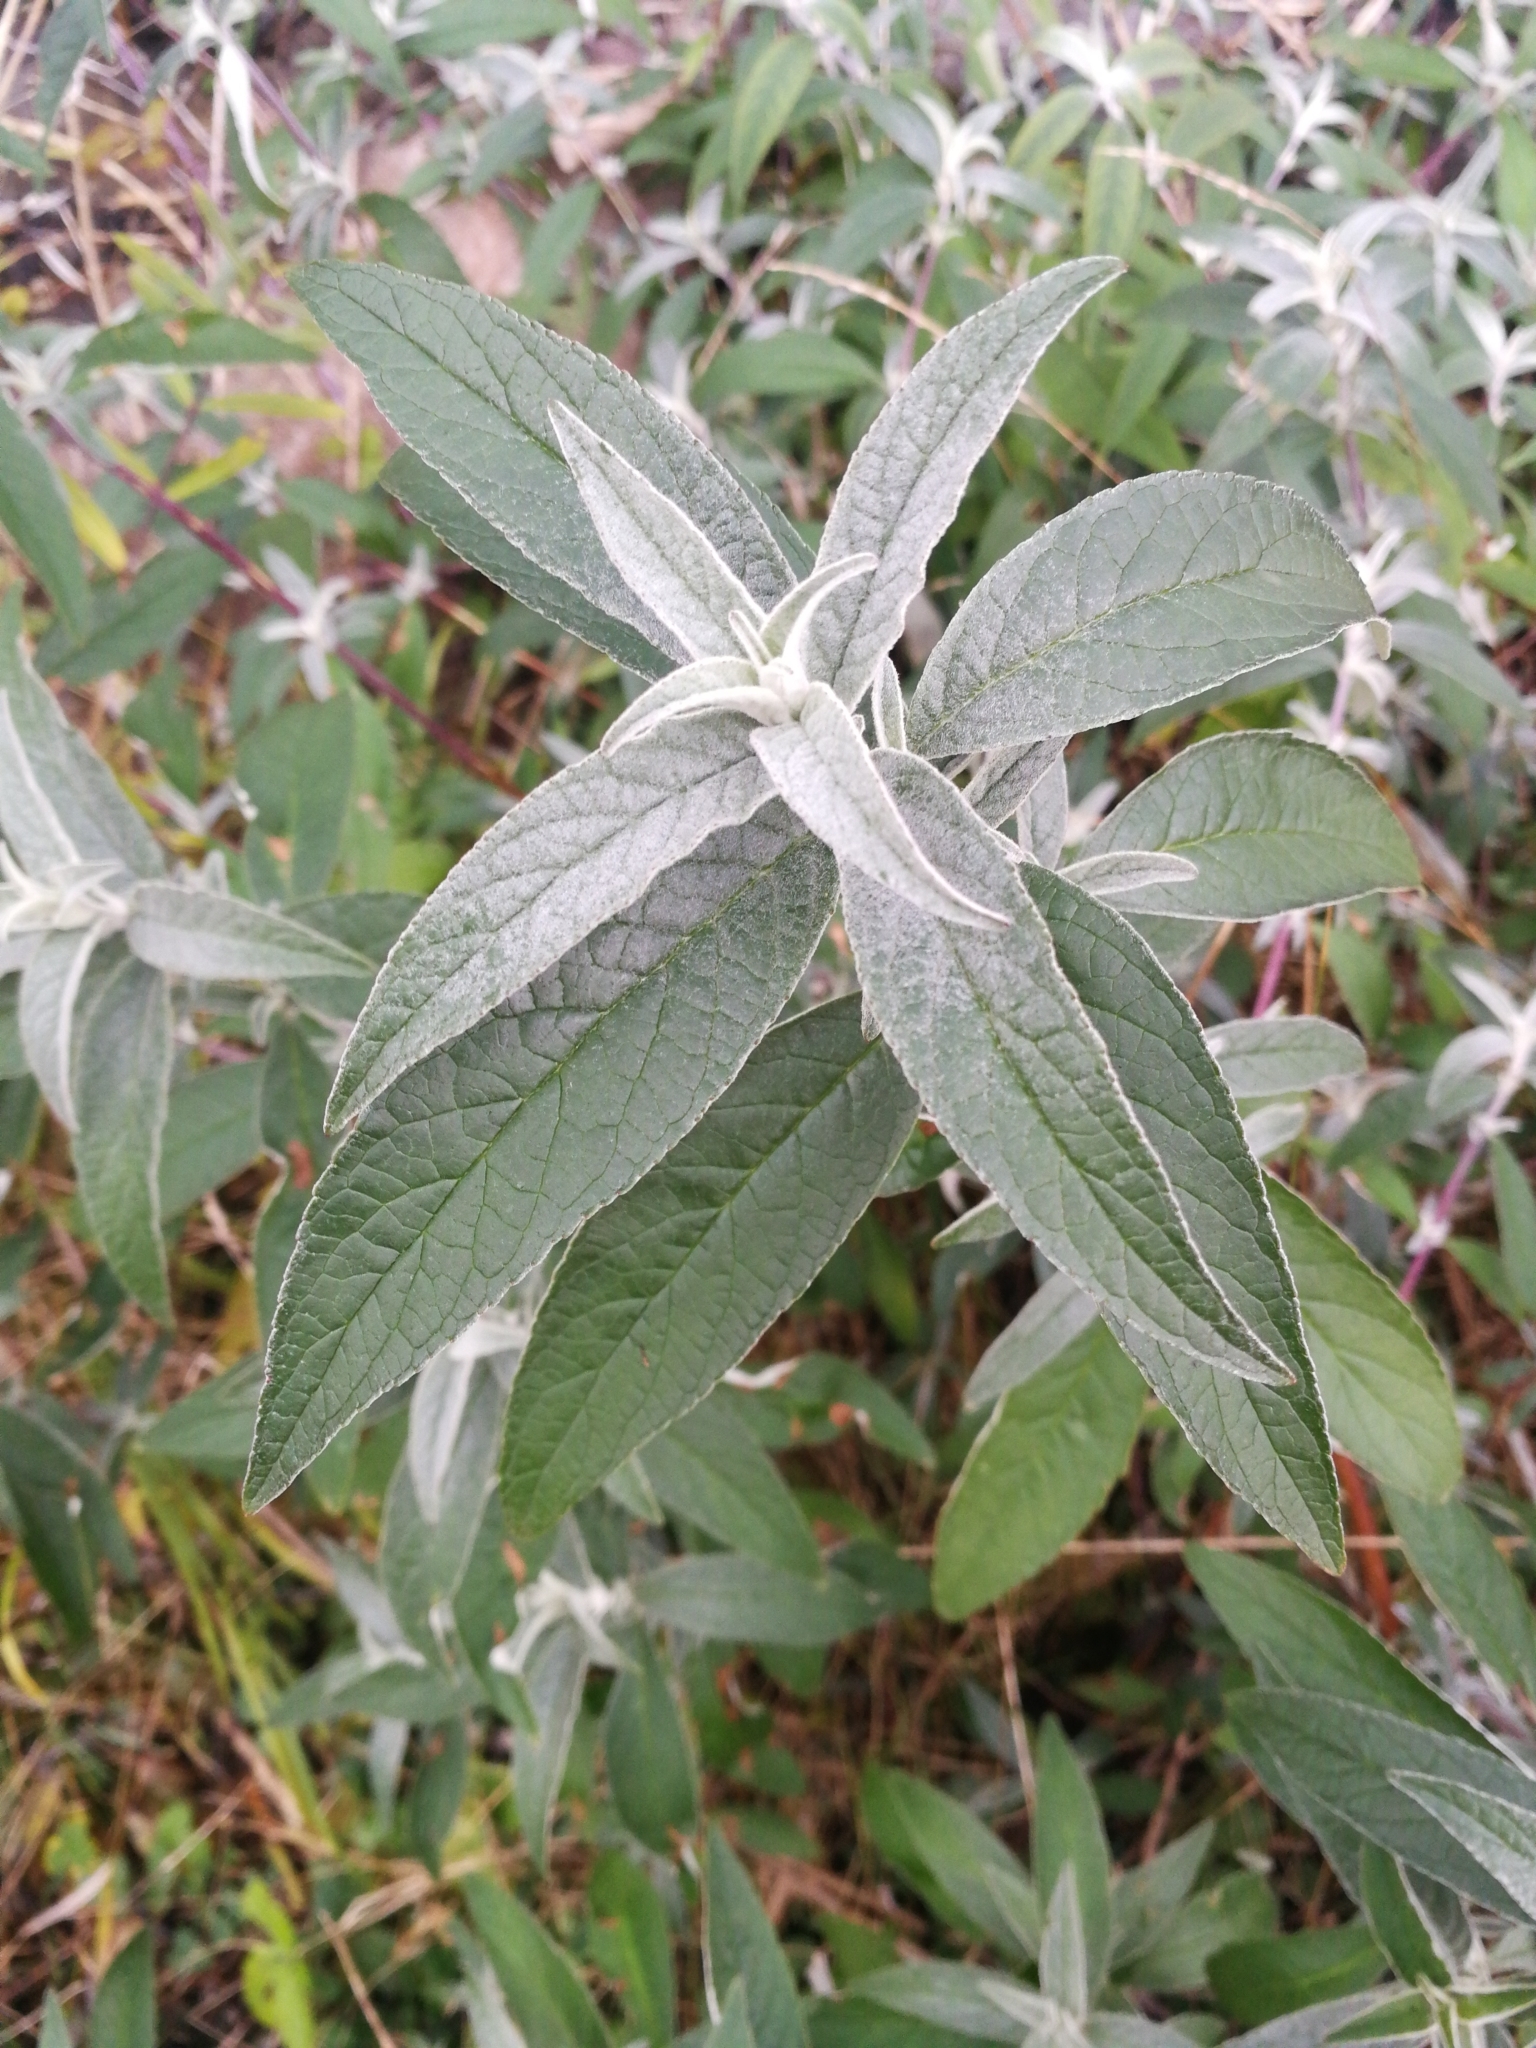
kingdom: Plantae
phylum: Tracheophyta
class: Magnoliopsida
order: Lamiales
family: Scrophulariaceae
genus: Buddleja
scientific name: Buddleja davidii
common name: Butterfly-bush
